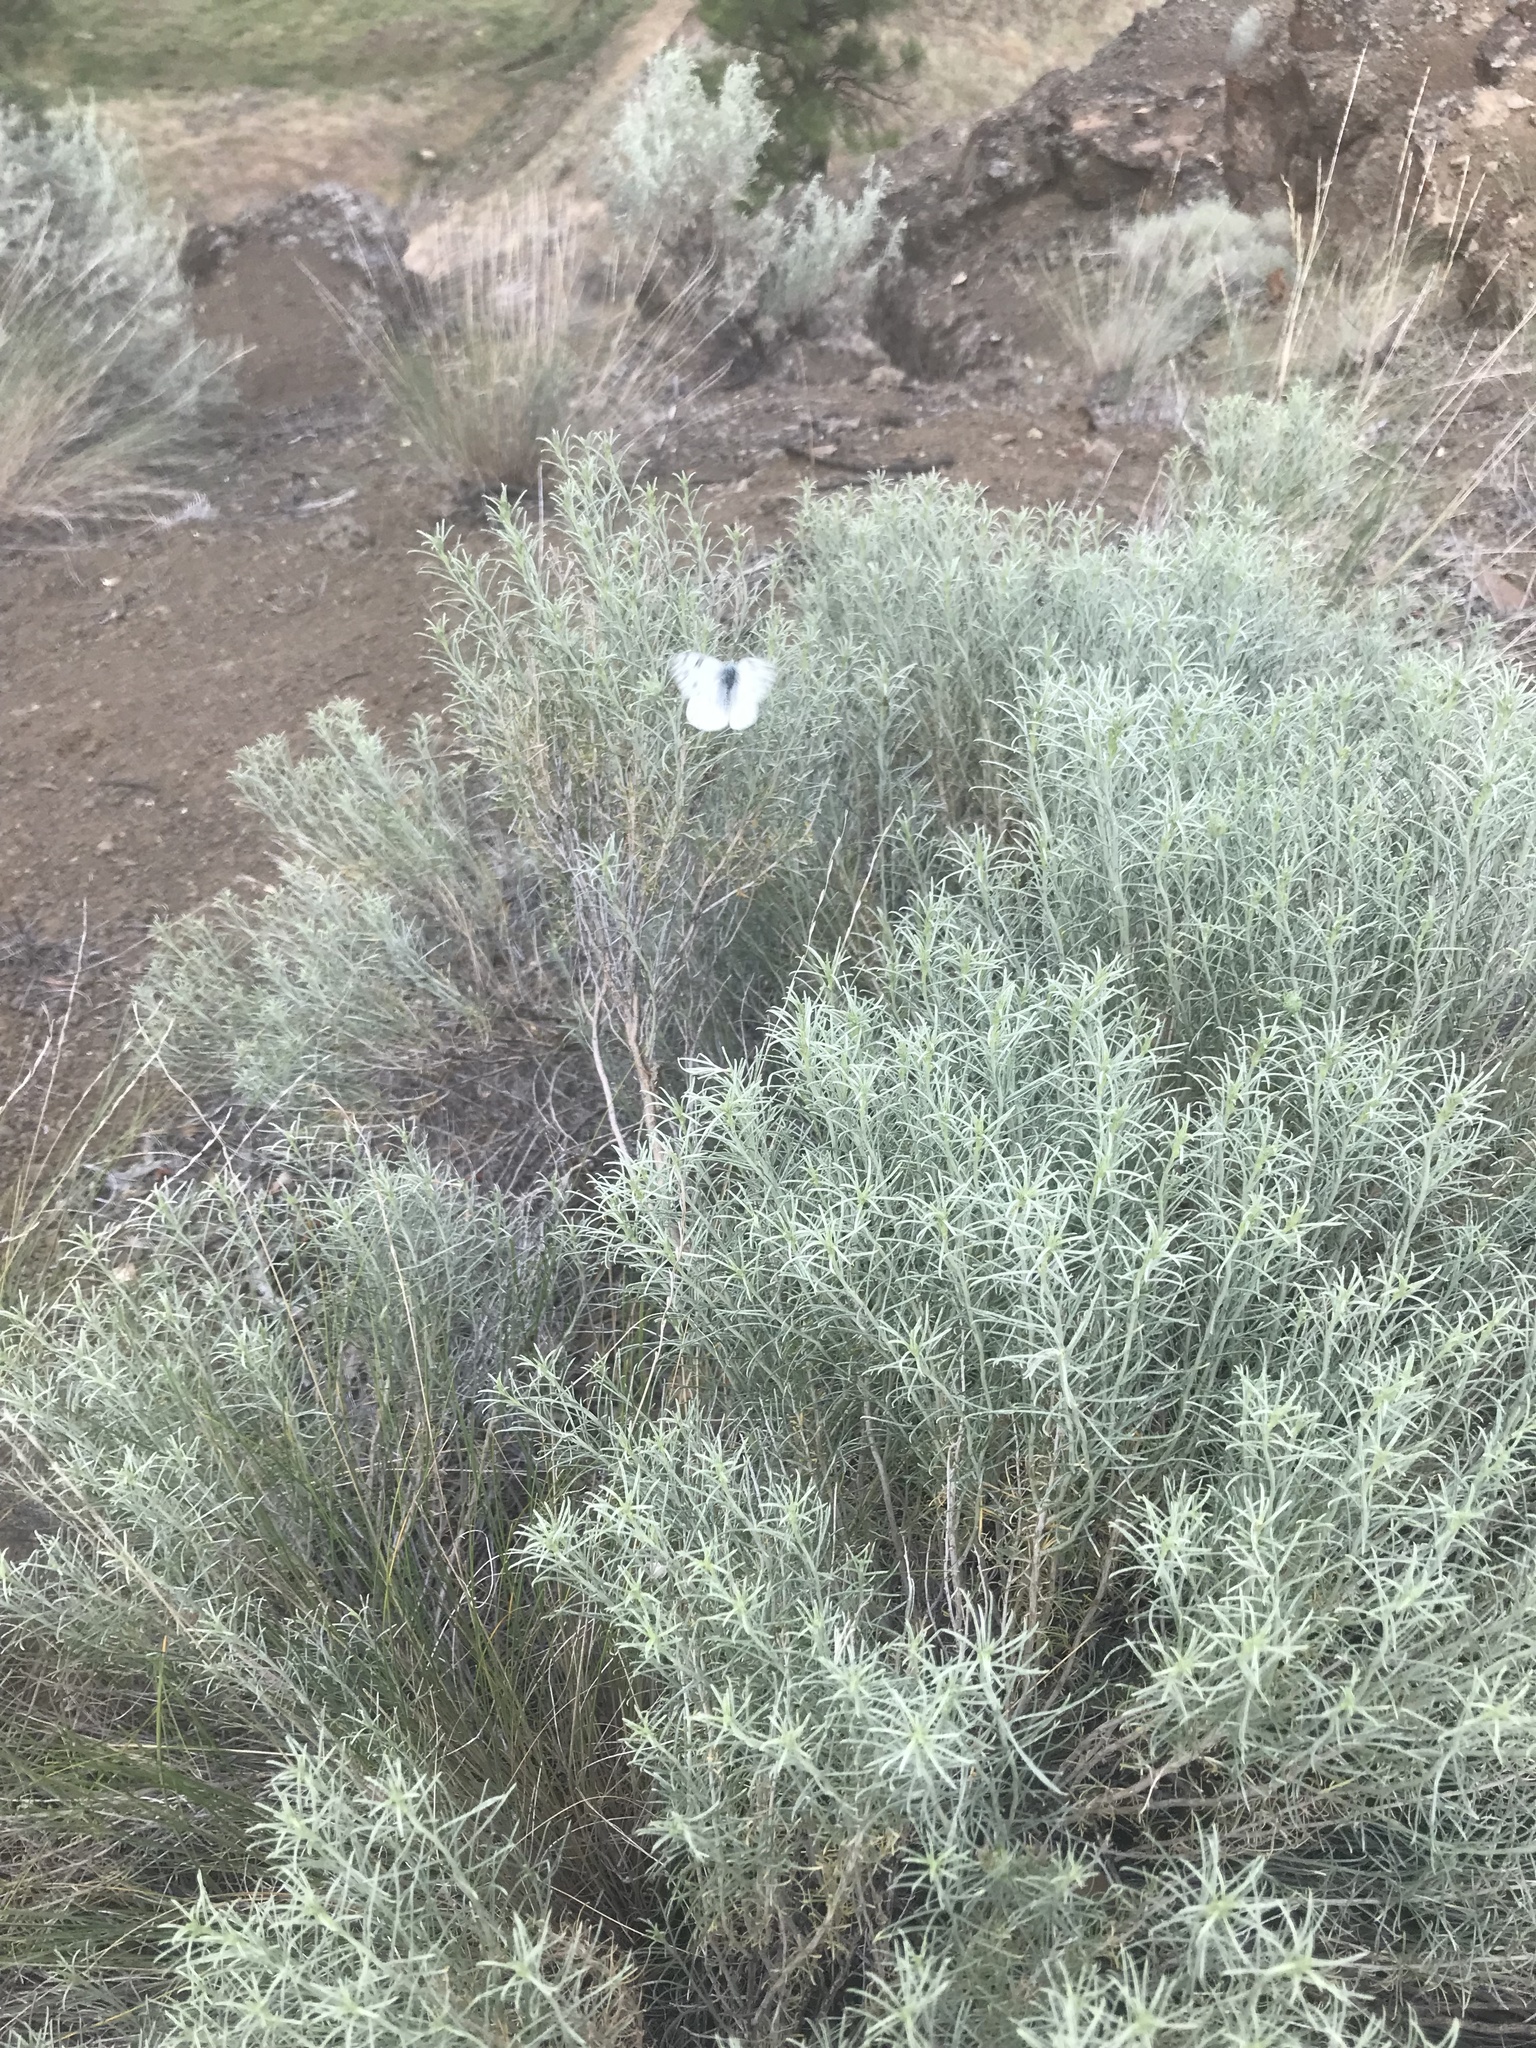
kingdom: Animalia
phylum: Arthropoda
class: Insecta
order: Lepidoptera
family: Pieridae
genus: Pontia
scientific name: Pontia occidentalis
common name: Western white
